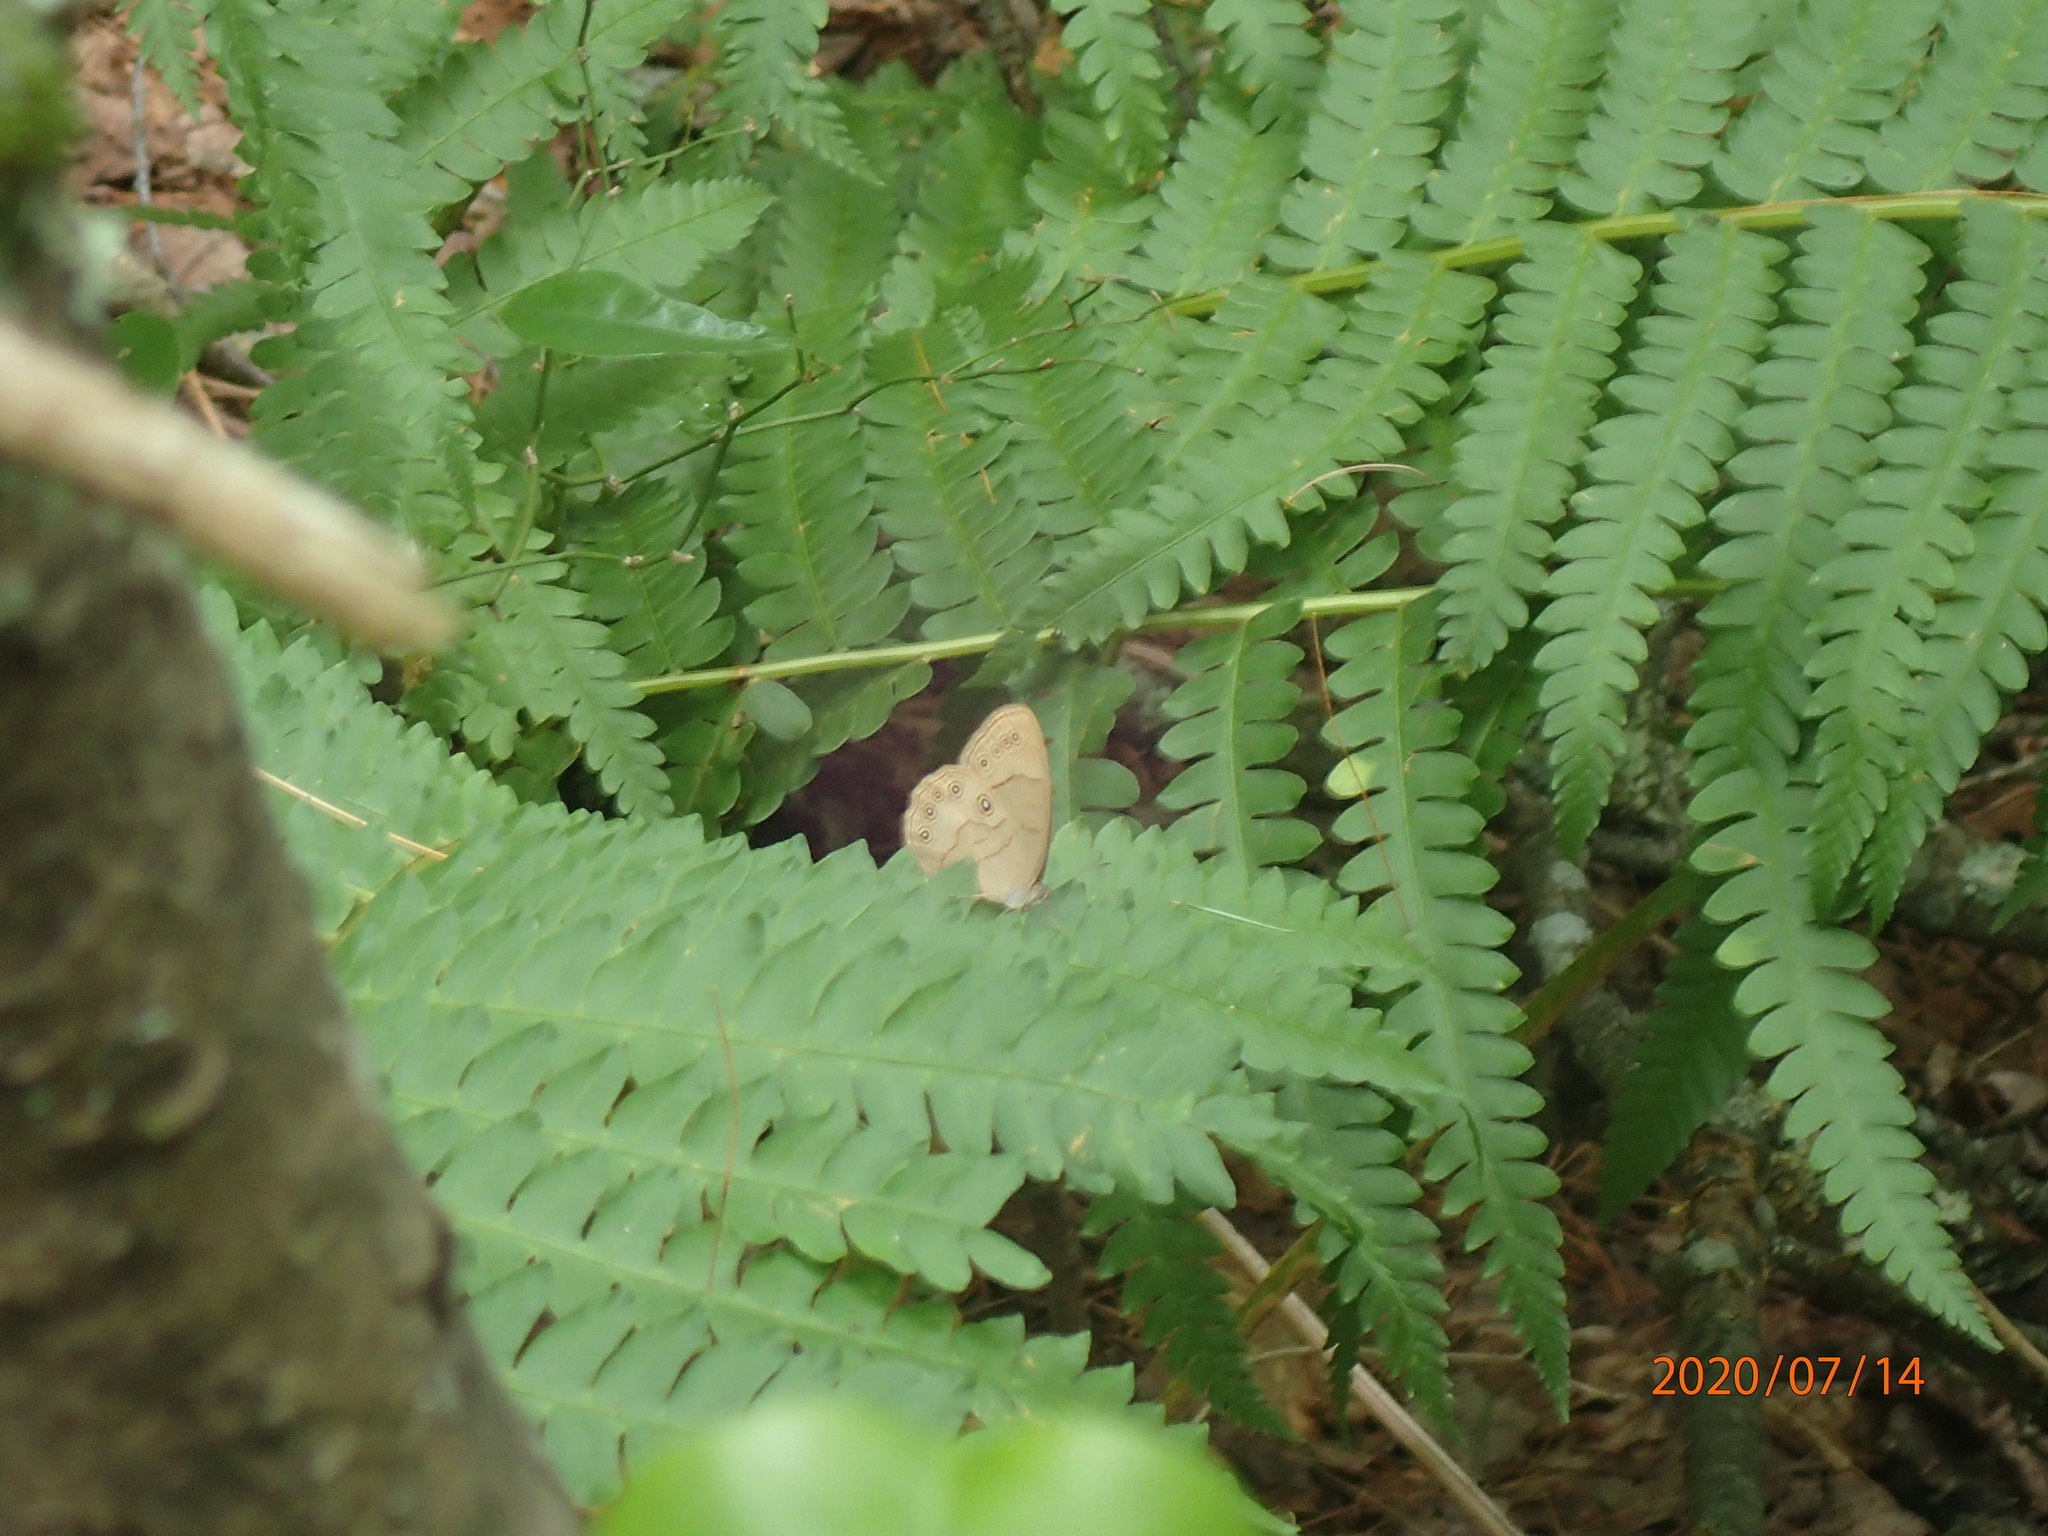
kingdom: Animalia
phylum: Arthropoda
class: Insecta
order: Lepidoptera
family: Nymphalidae
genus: Lethe
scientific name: Lethe eurydice
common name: Eyed brown
